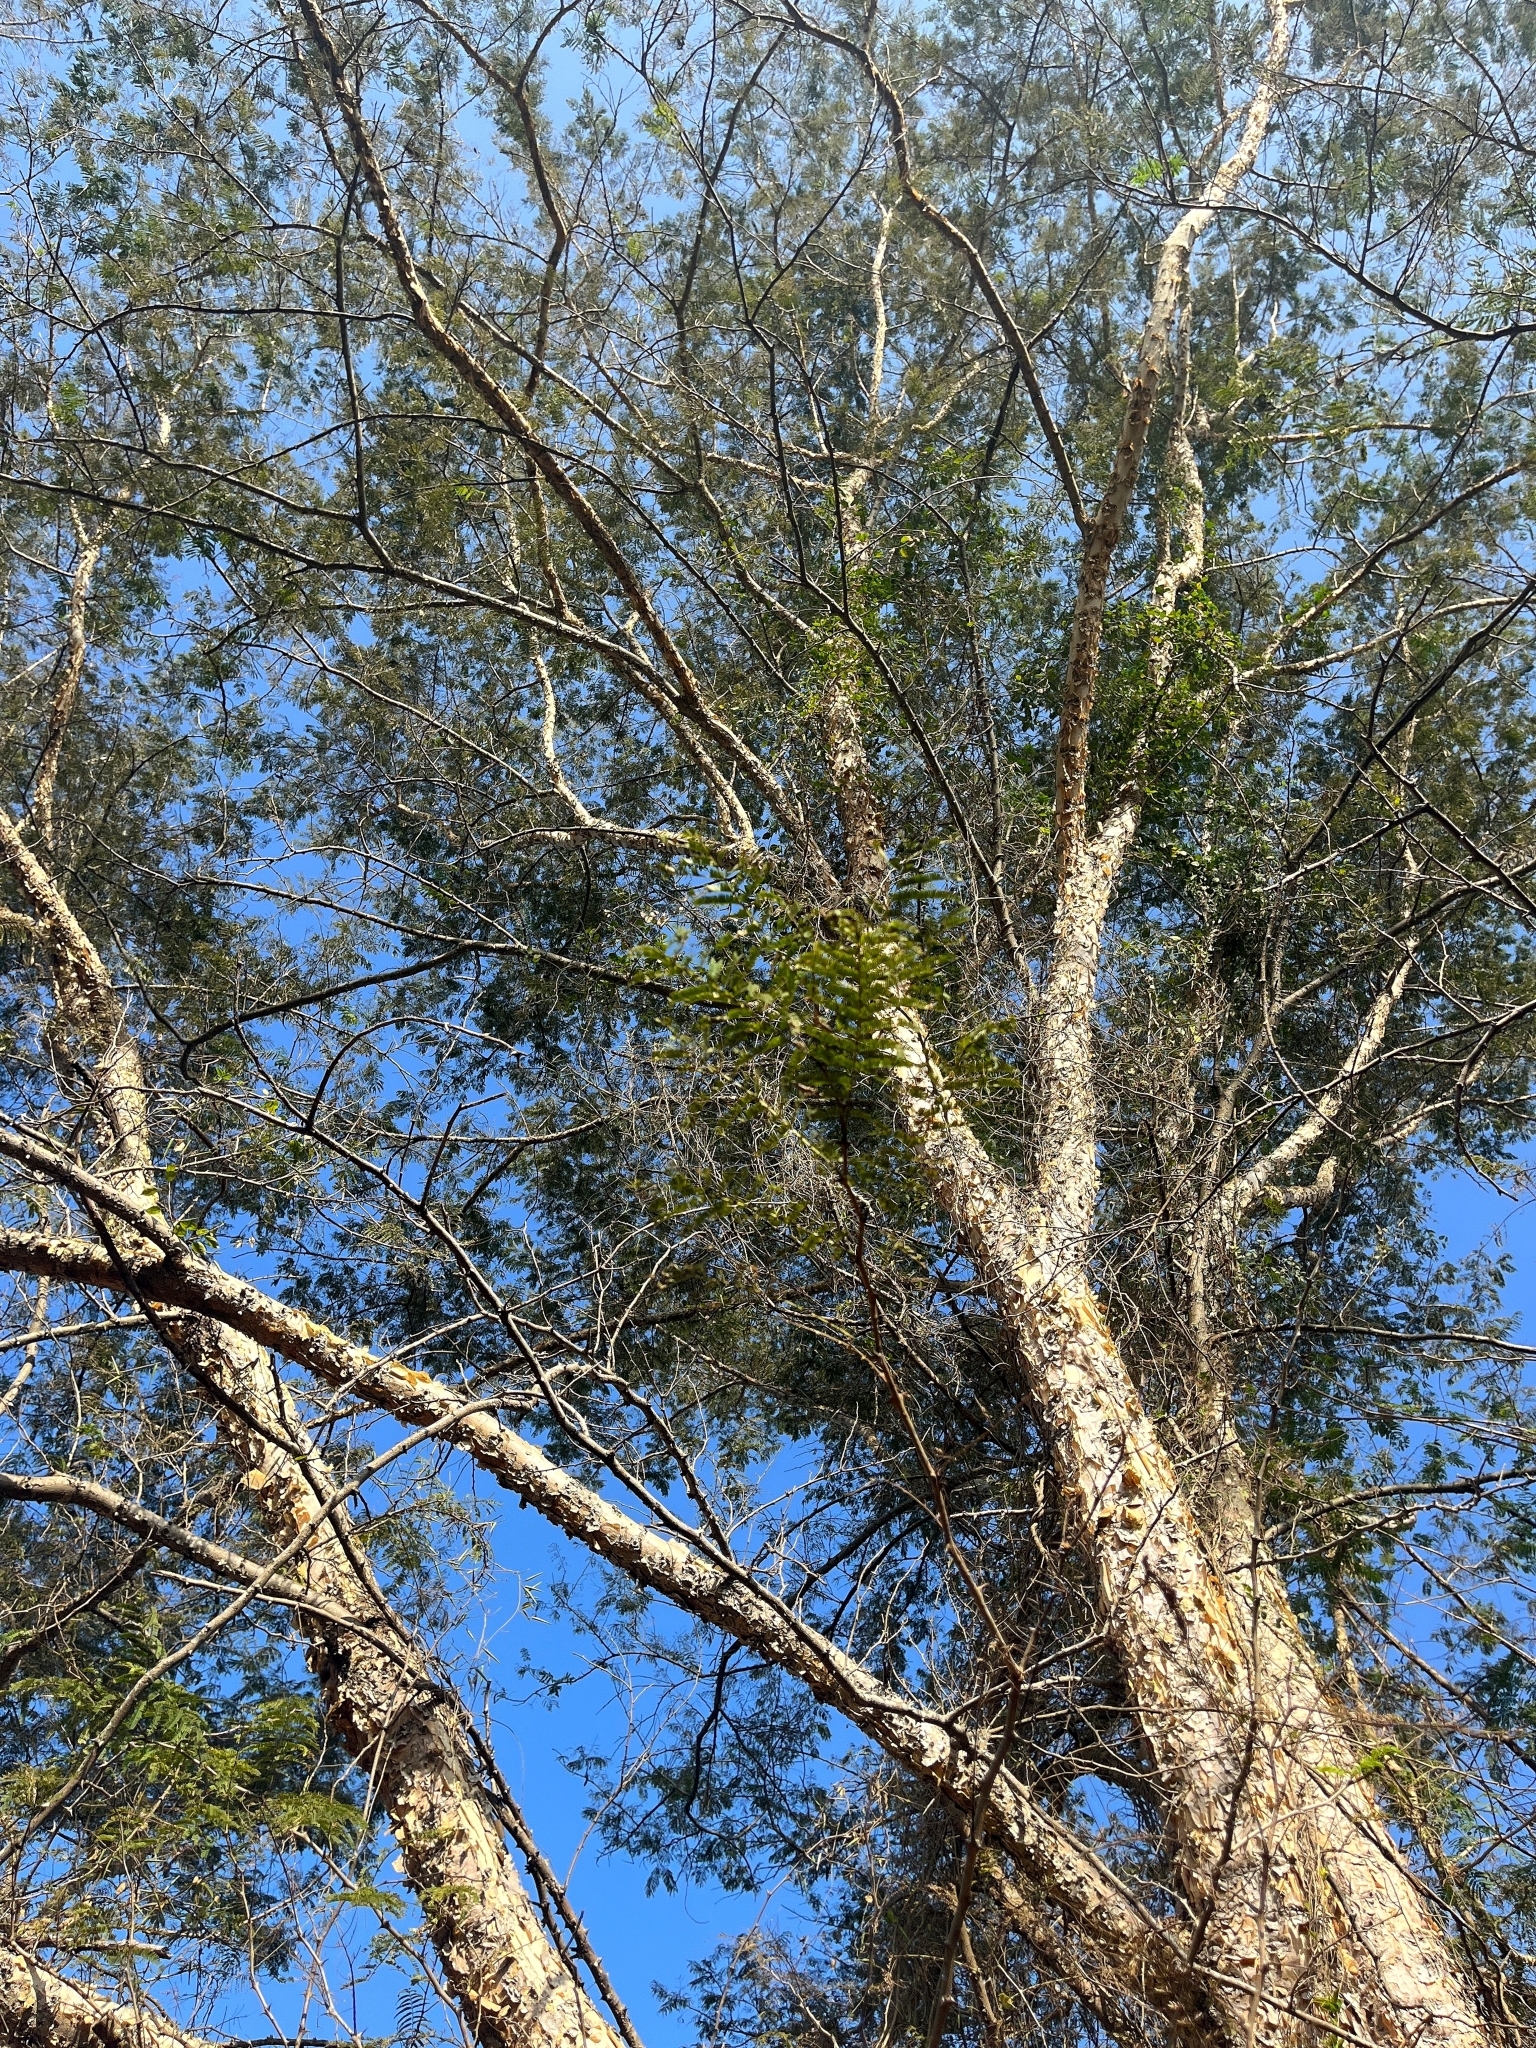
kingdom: Plantae
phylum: Tracheophyta
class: Magnoliopsida
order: Fabales
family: Fabaceae
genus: Senegalia
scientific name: Senegalia polyacantha
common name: Whitethorn
